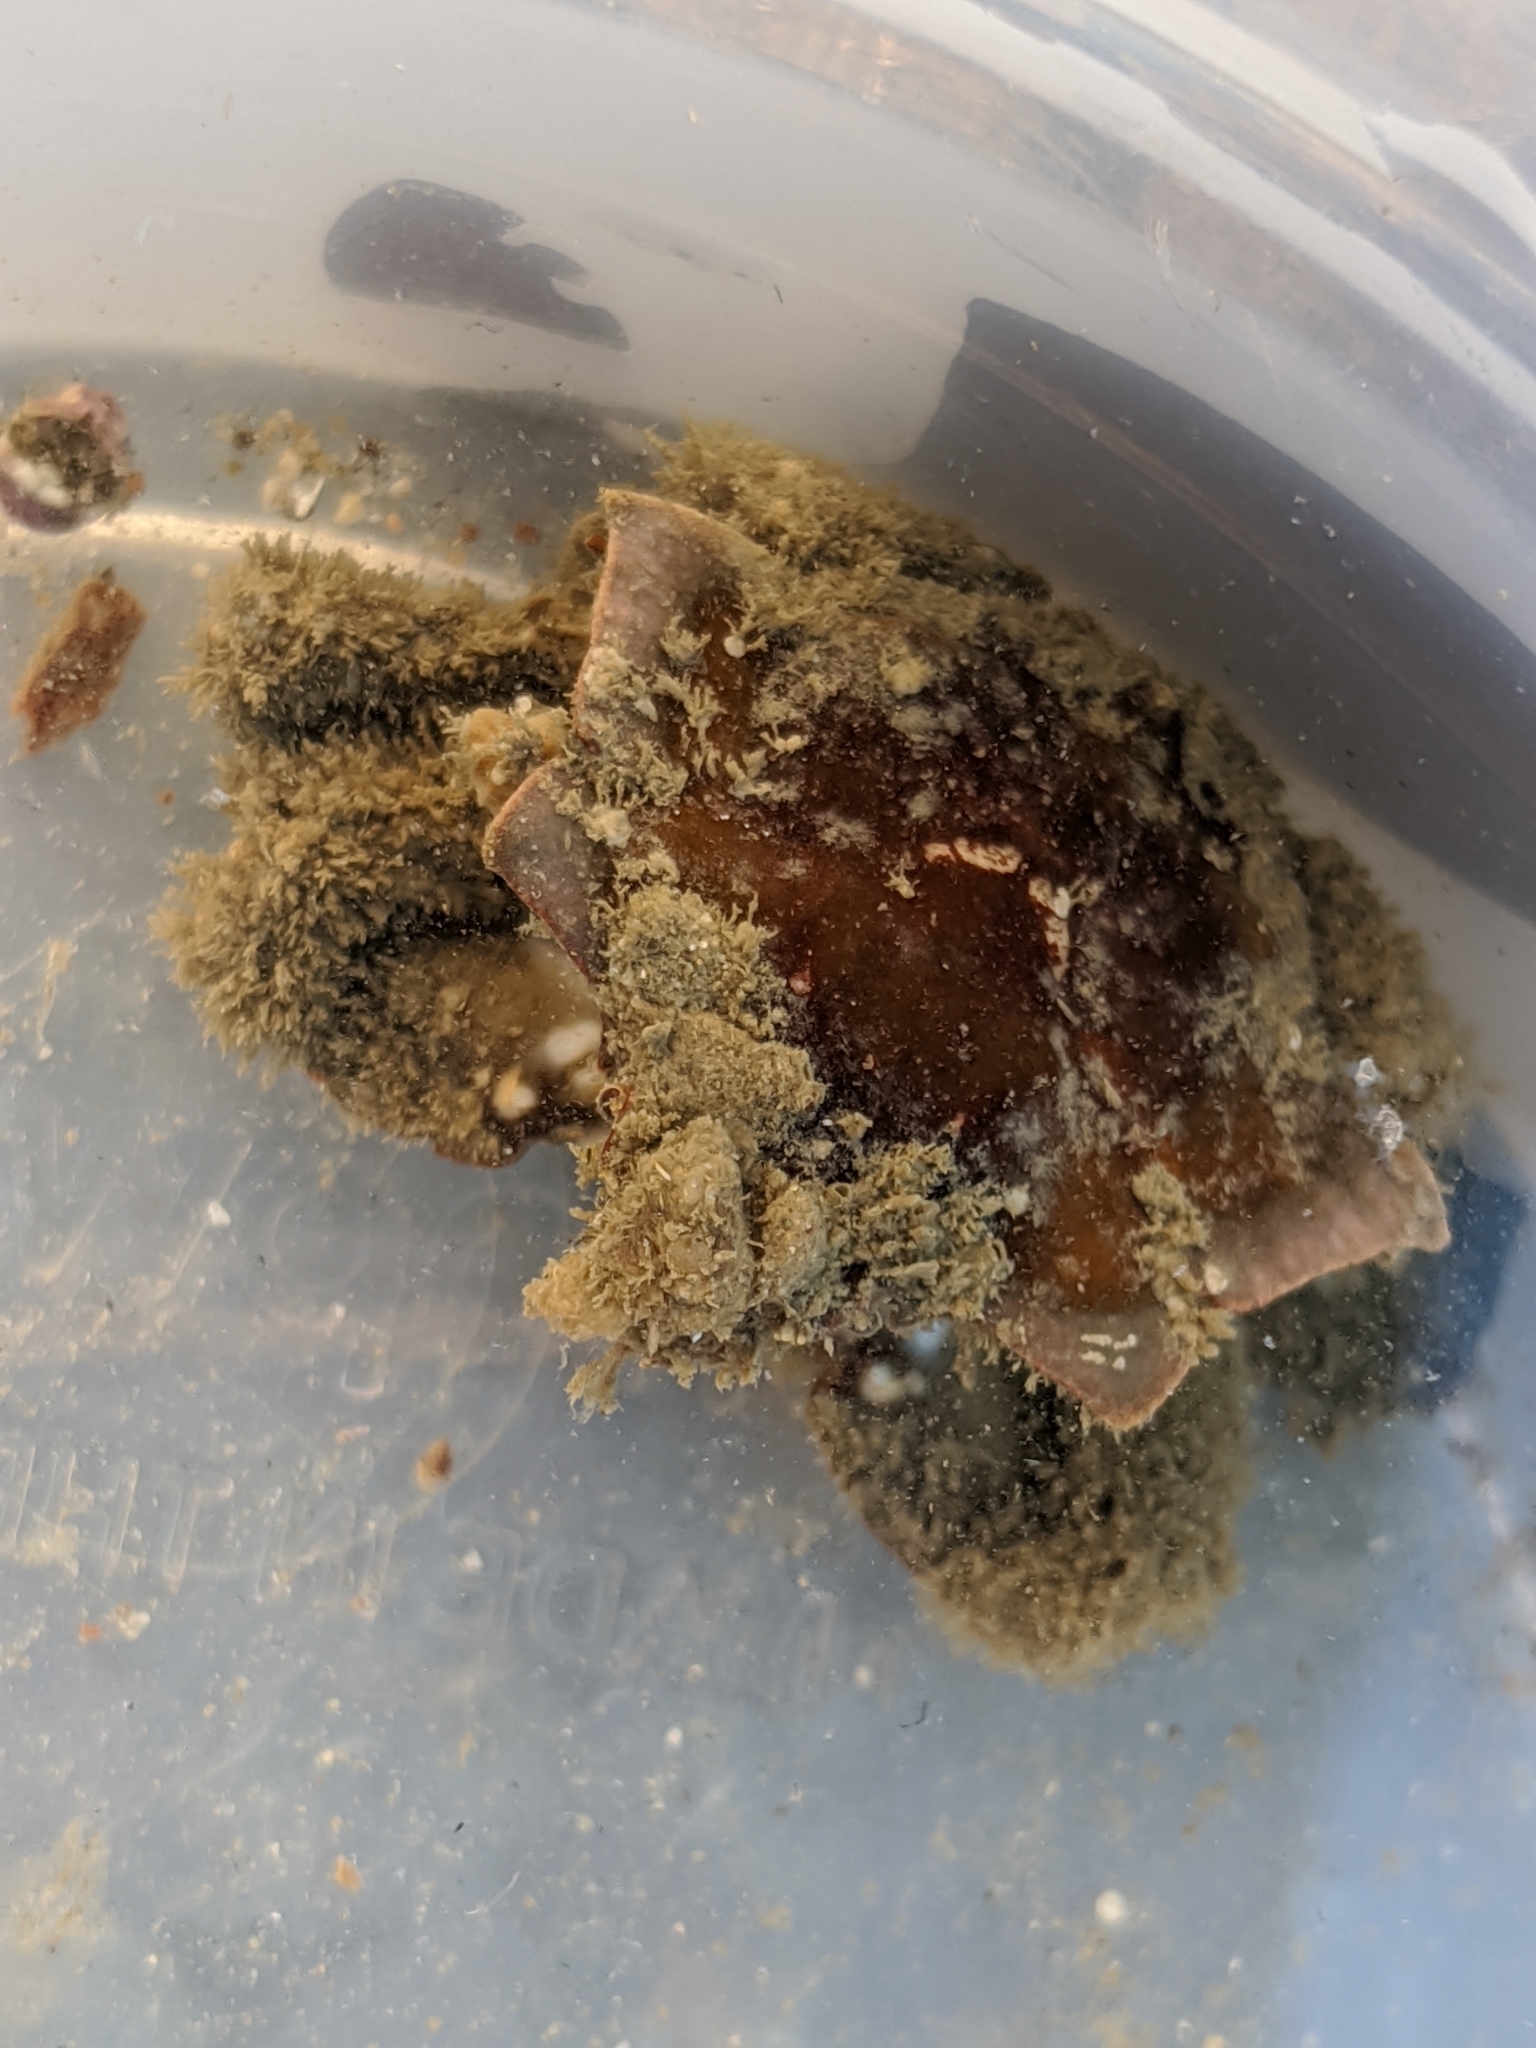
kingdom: Animalia
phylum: Arthropoda
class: Malacostraca
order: Decapoda
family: Epialtidae
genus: Pugettia
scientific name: Pugettia foliata
